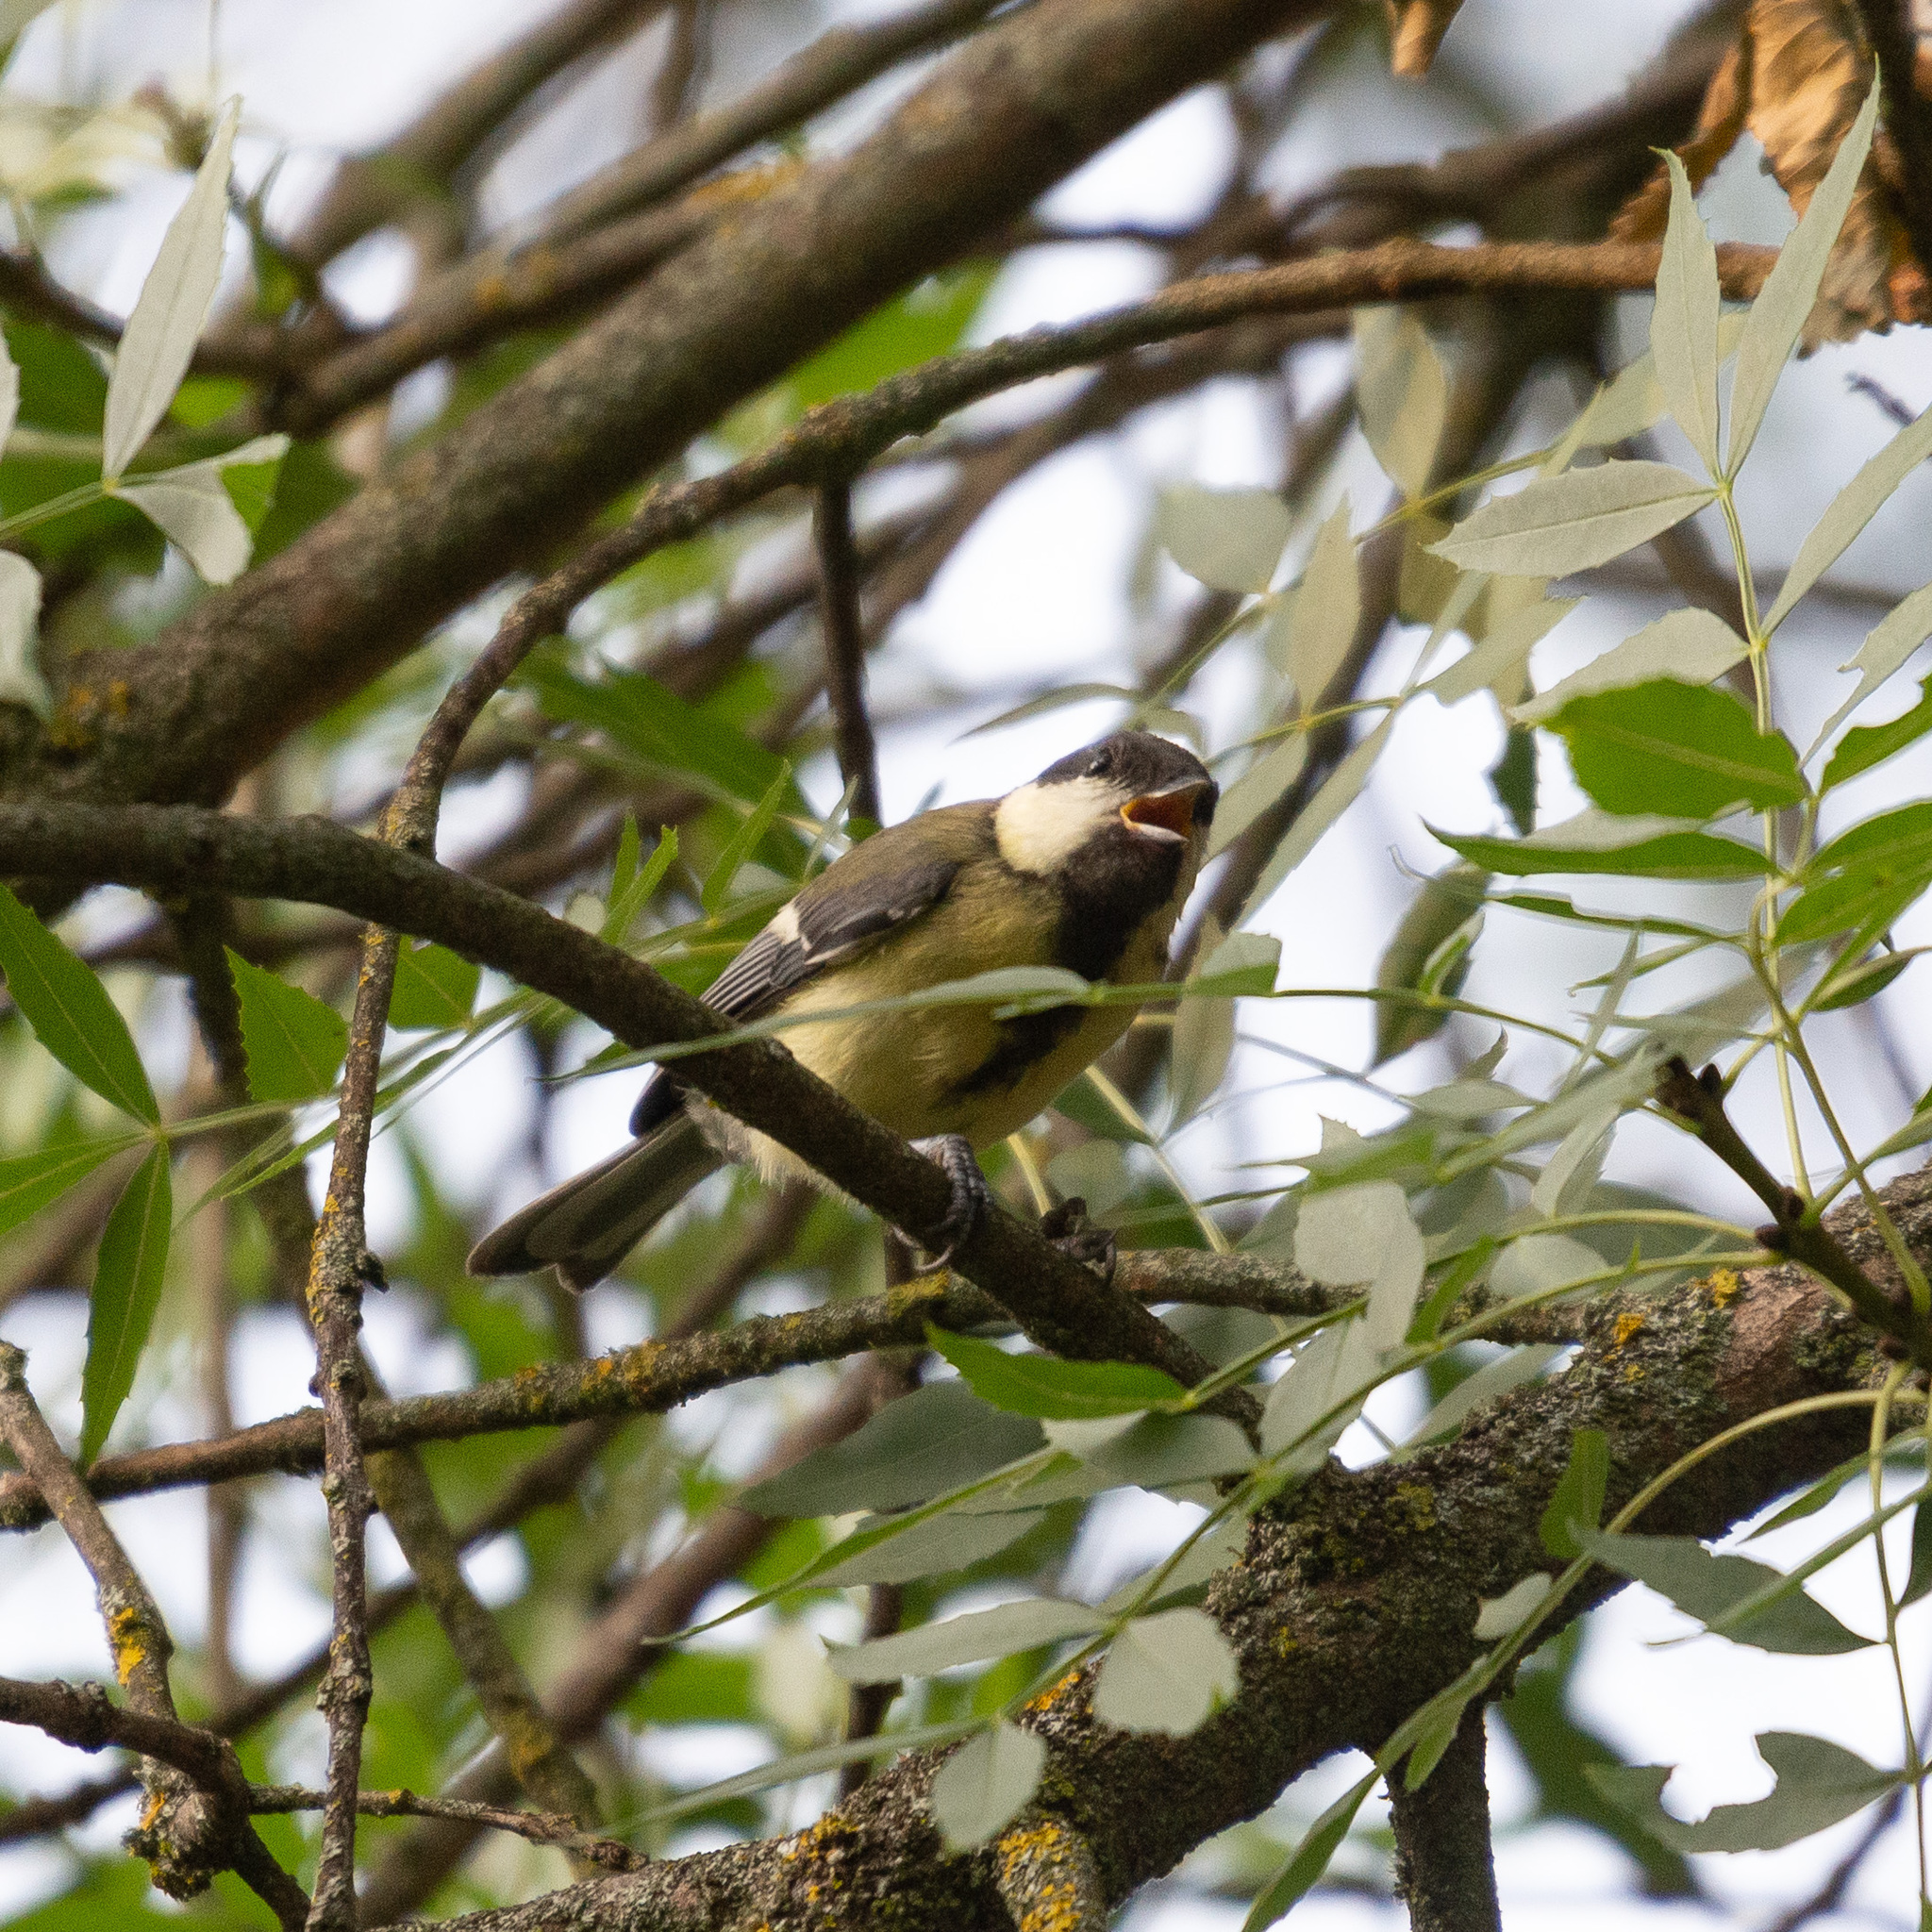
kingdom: Animalia
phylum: Chordata
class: Aves
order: Passeriformes
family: Paridae
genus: Parus
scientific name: Parus major
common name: Great tit
